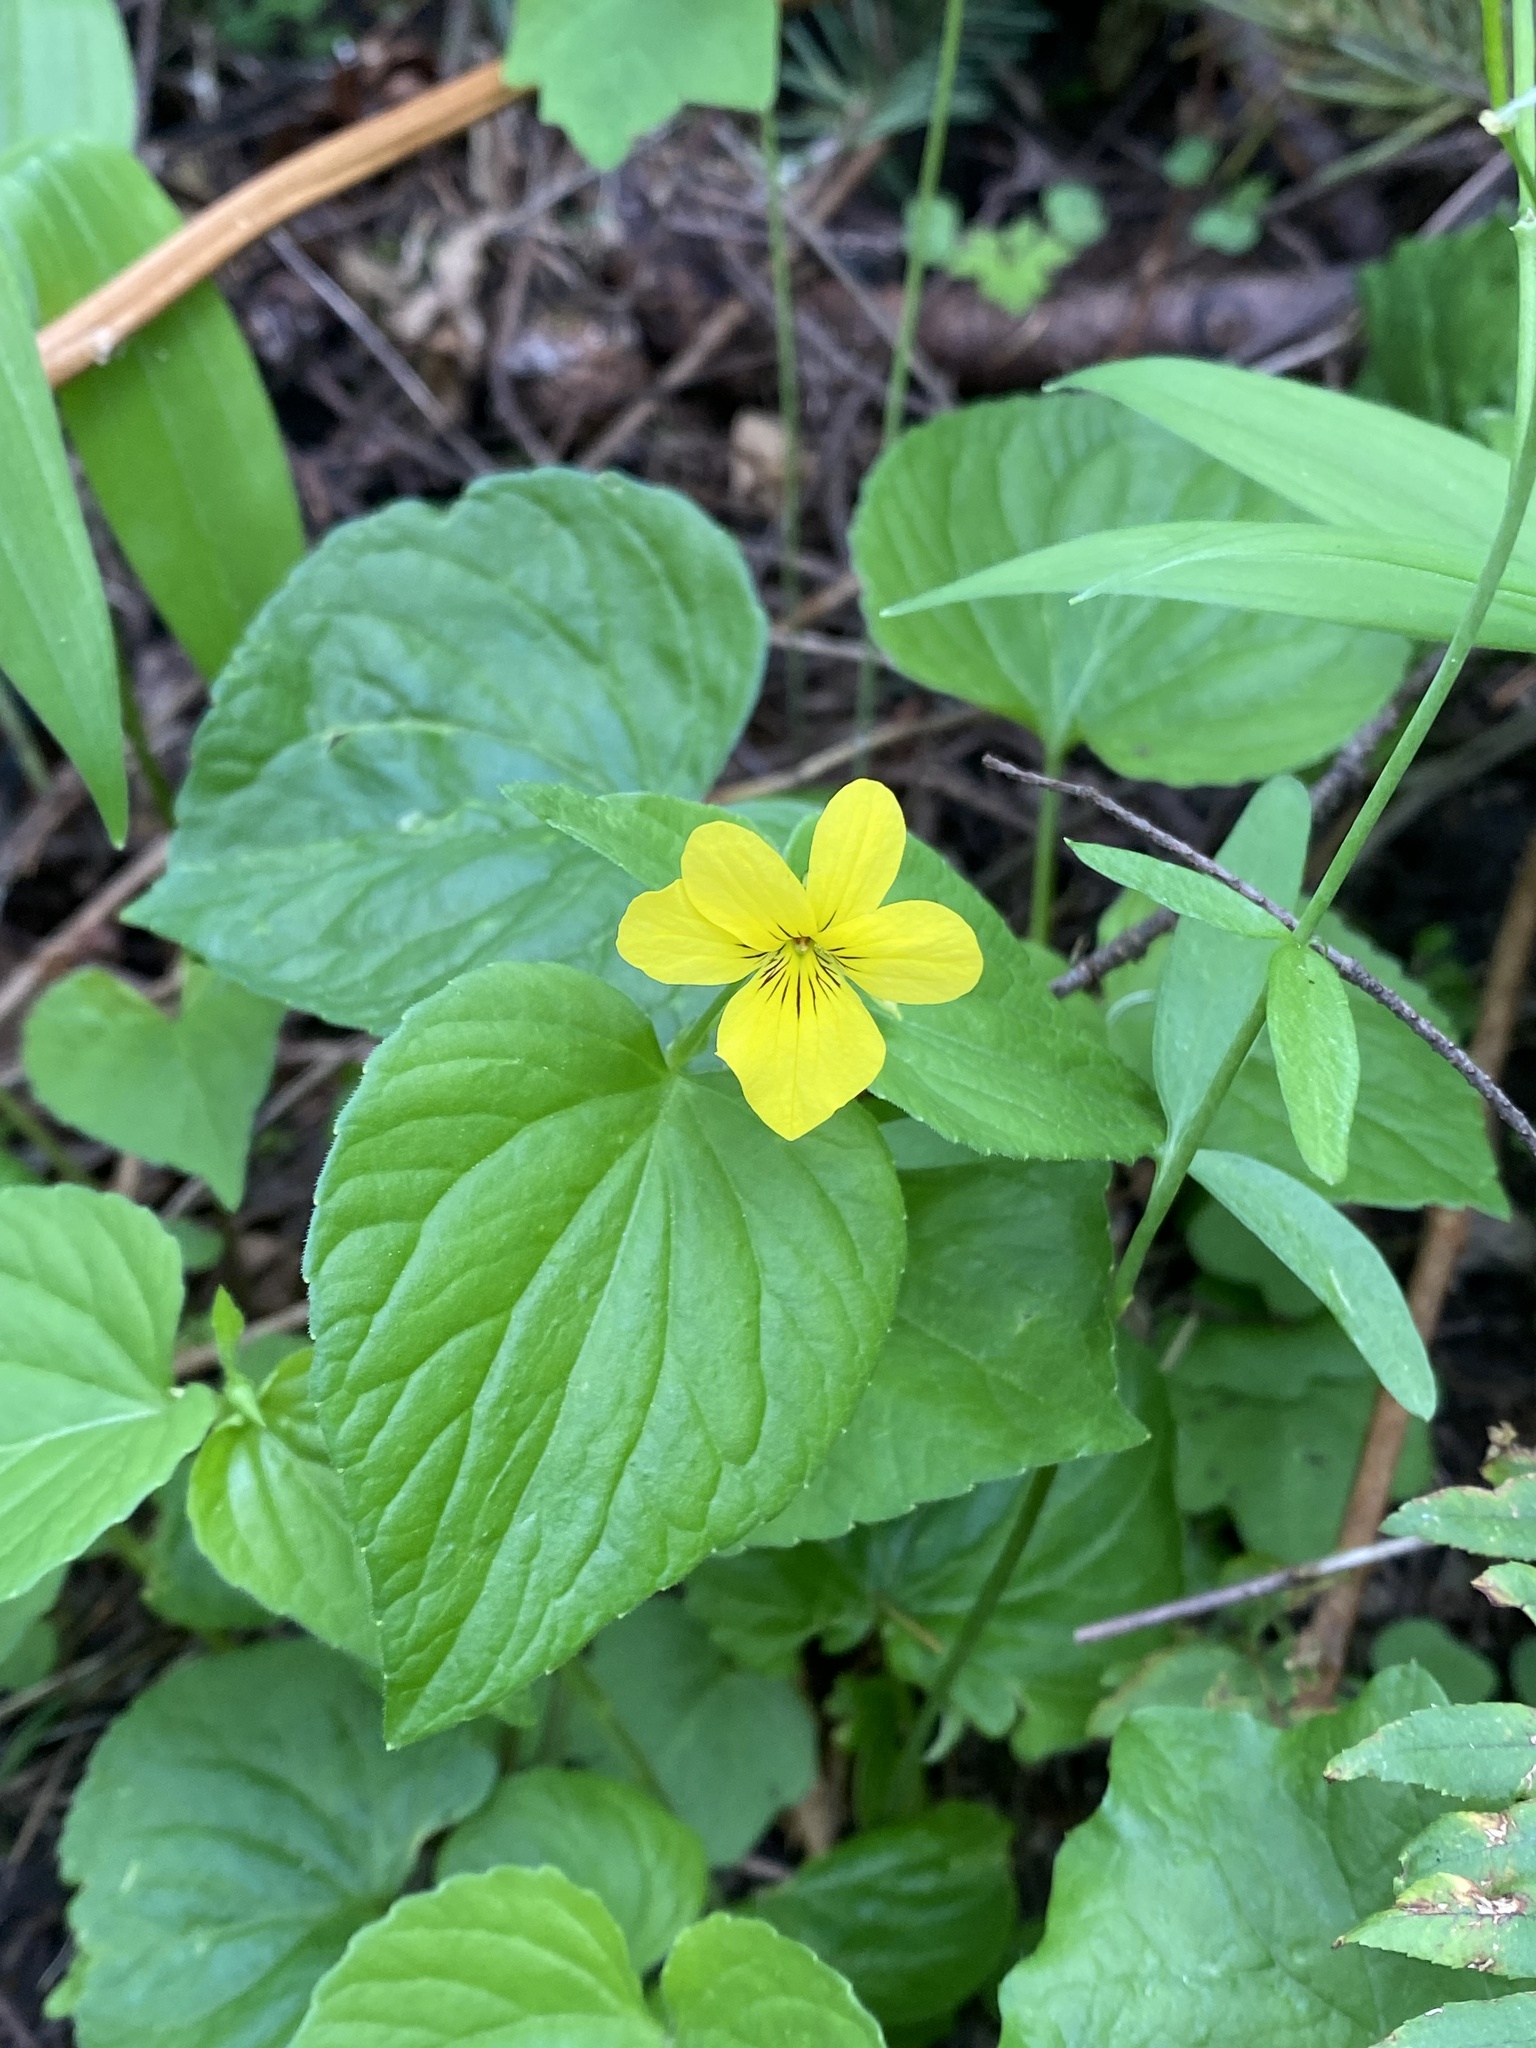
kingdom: Plantae
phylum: Tracheophyta
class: Magnoliopsida
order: Malpighiales
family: Violaceae
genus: Viola
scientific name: Viola glabella
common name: Stream violet
